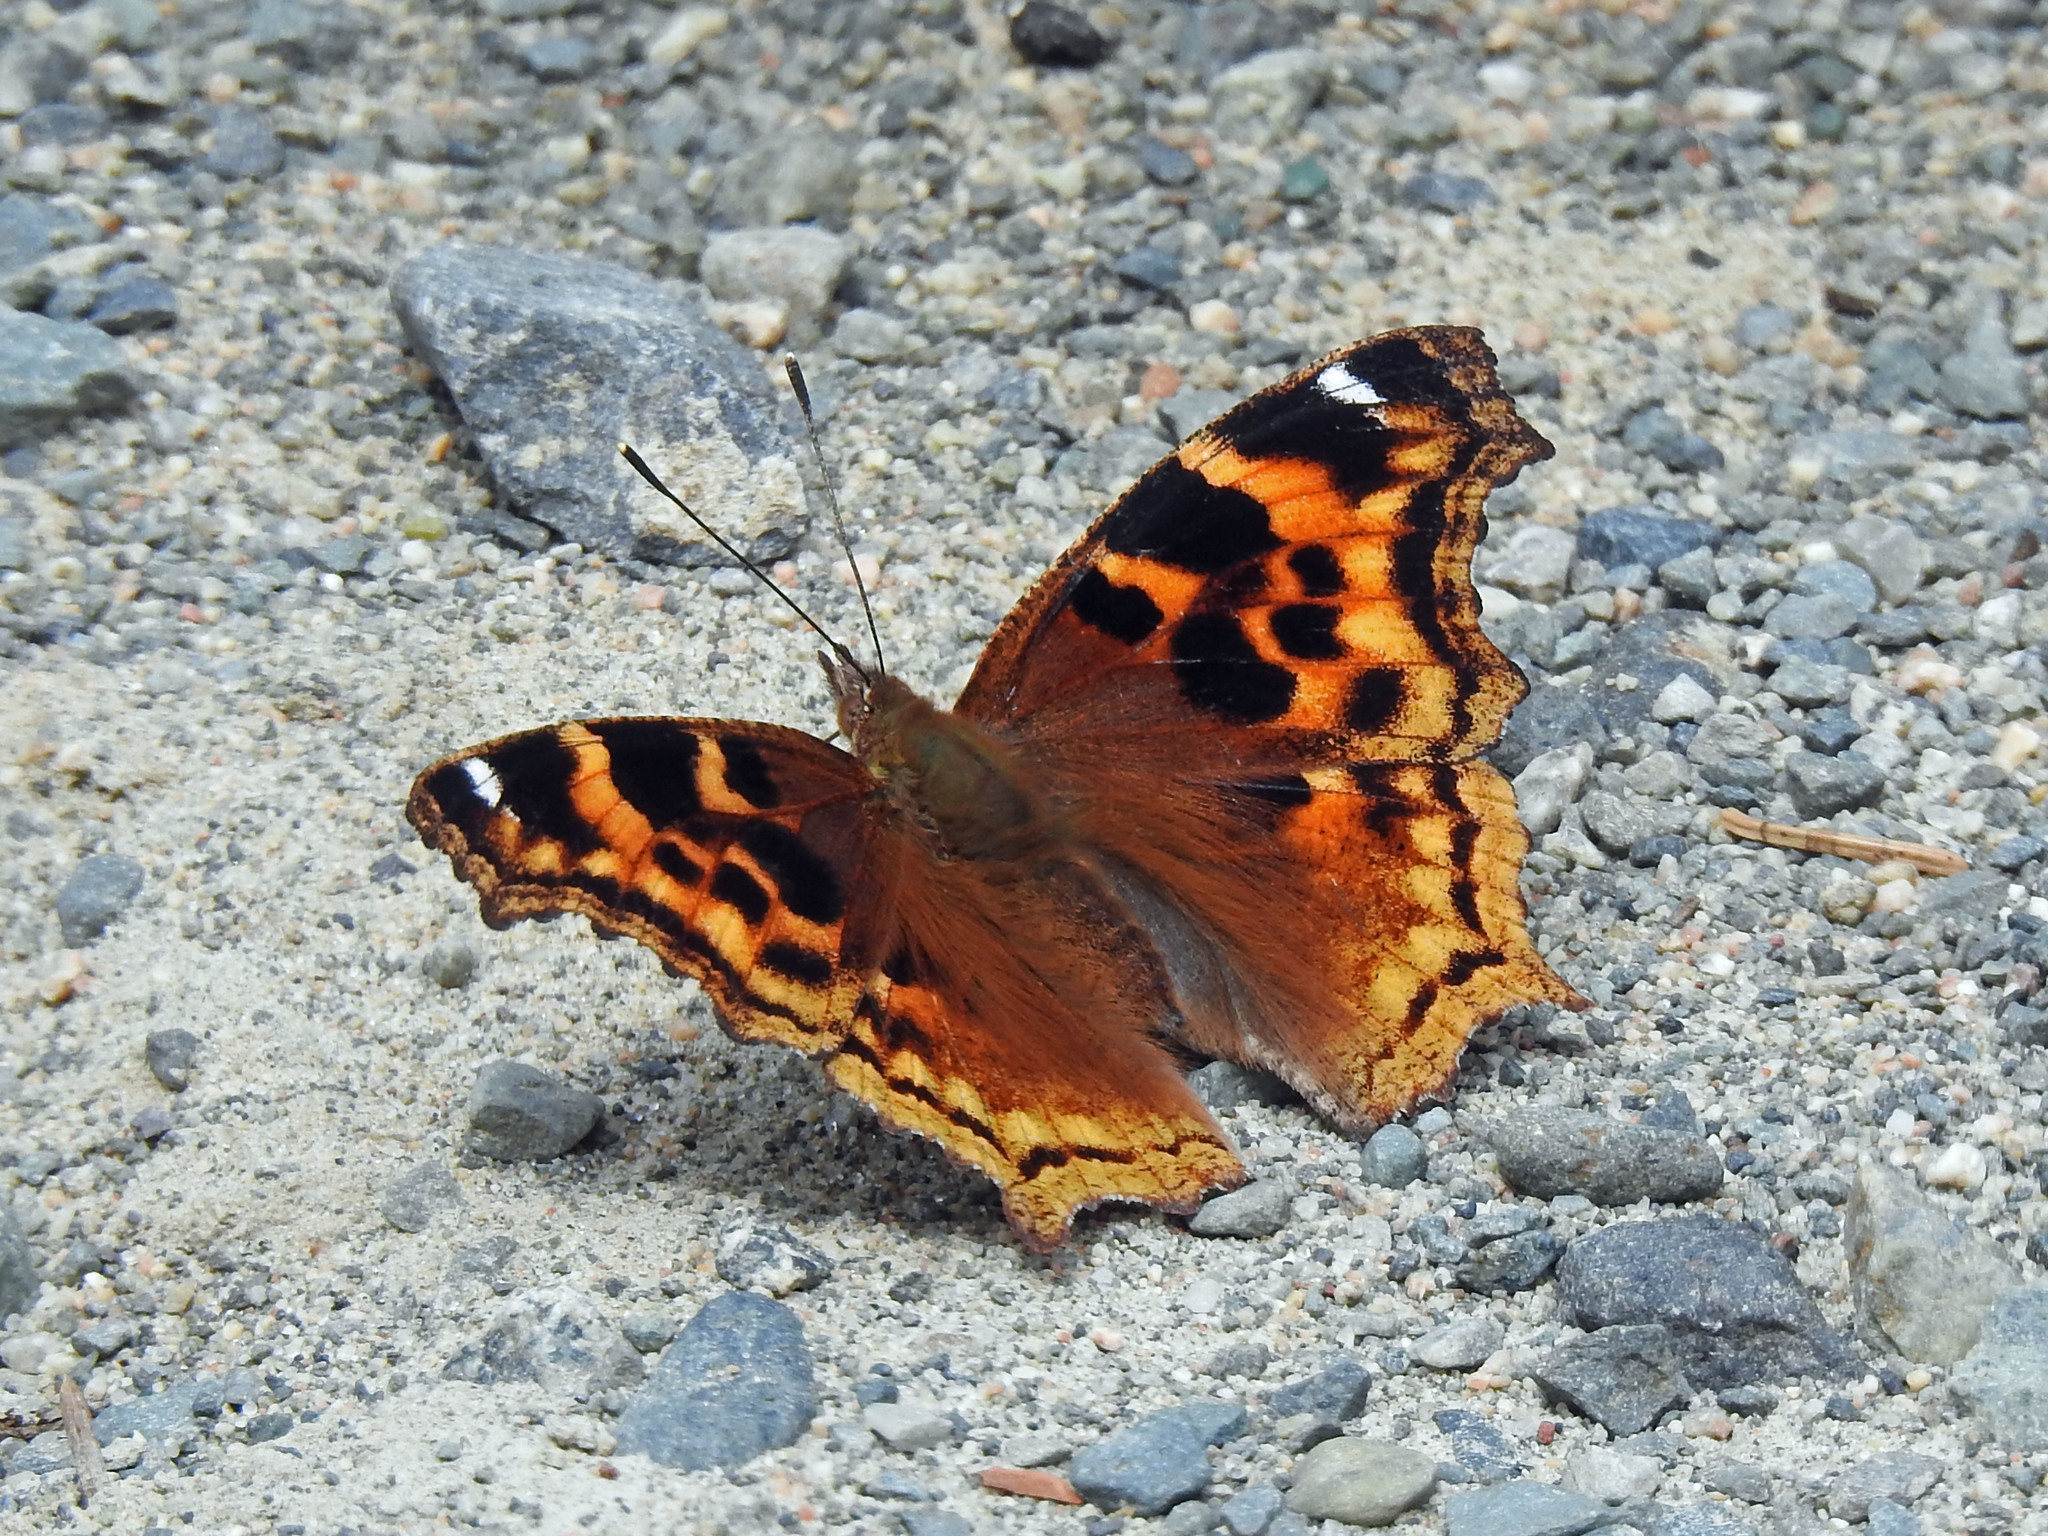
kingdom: Animalia
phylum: Arthropoda
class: Insecta
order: Lepidoptera
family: Nymphalidae
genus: Polygonia
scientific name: Polygonia vaualbum
